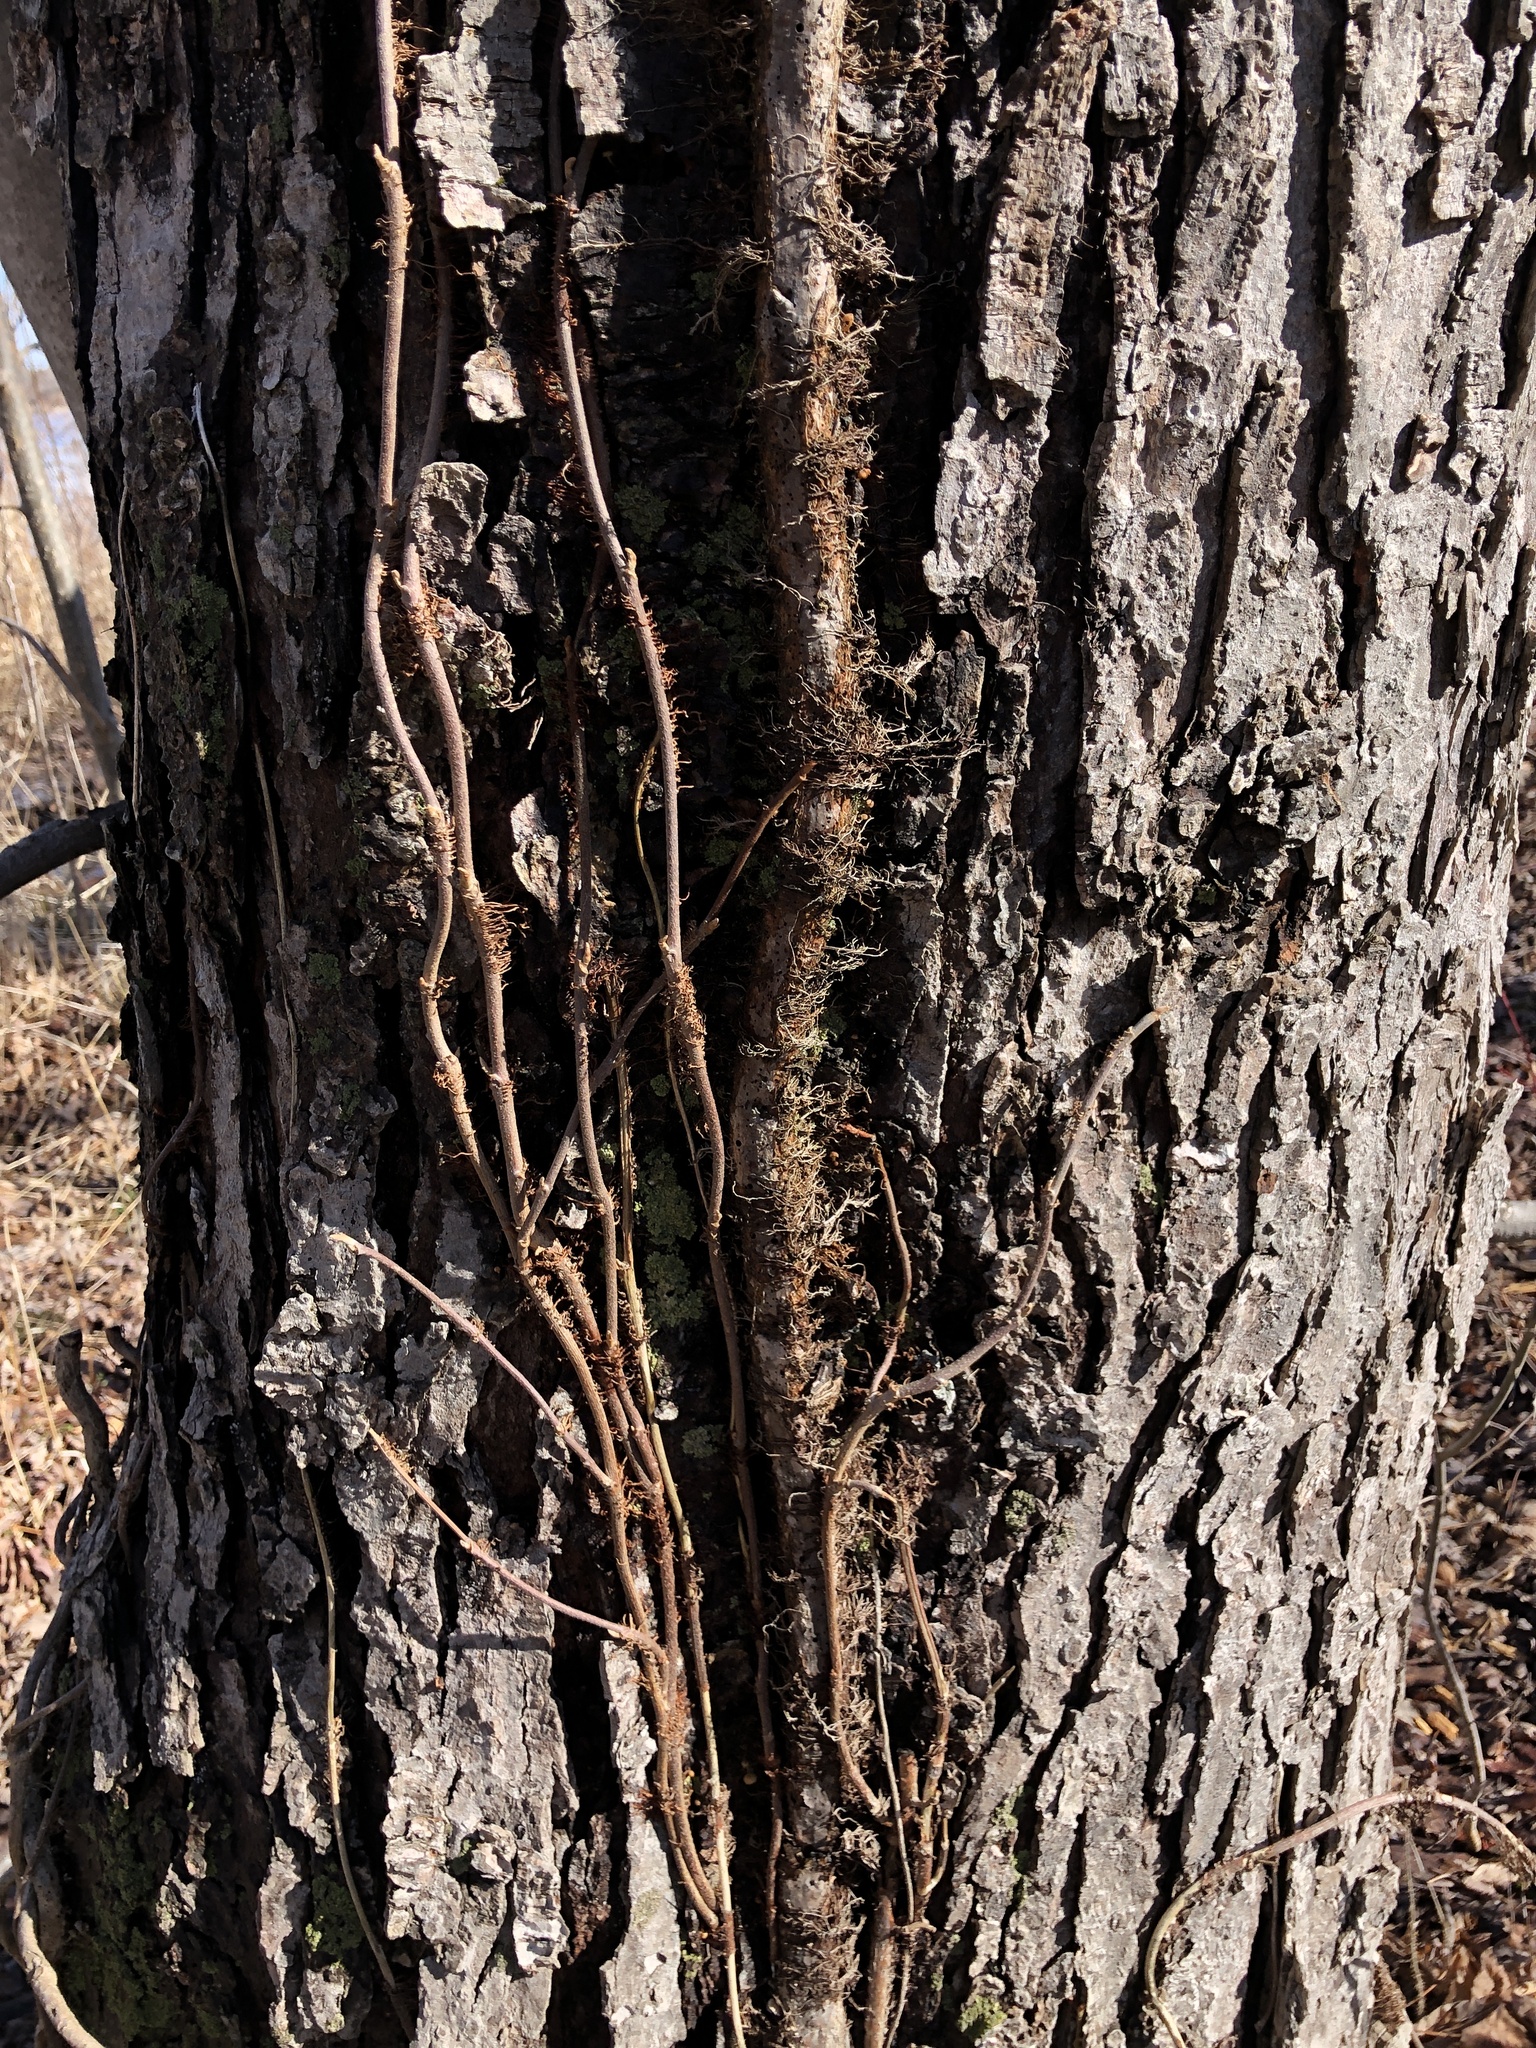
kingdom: Plantae
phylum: Tracheophyta
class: Magnoliopsida
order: Sapindales
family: Anacardiaceae
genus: Toxicodendron
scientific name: Toxicodendron radicans
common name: Poison ivy
